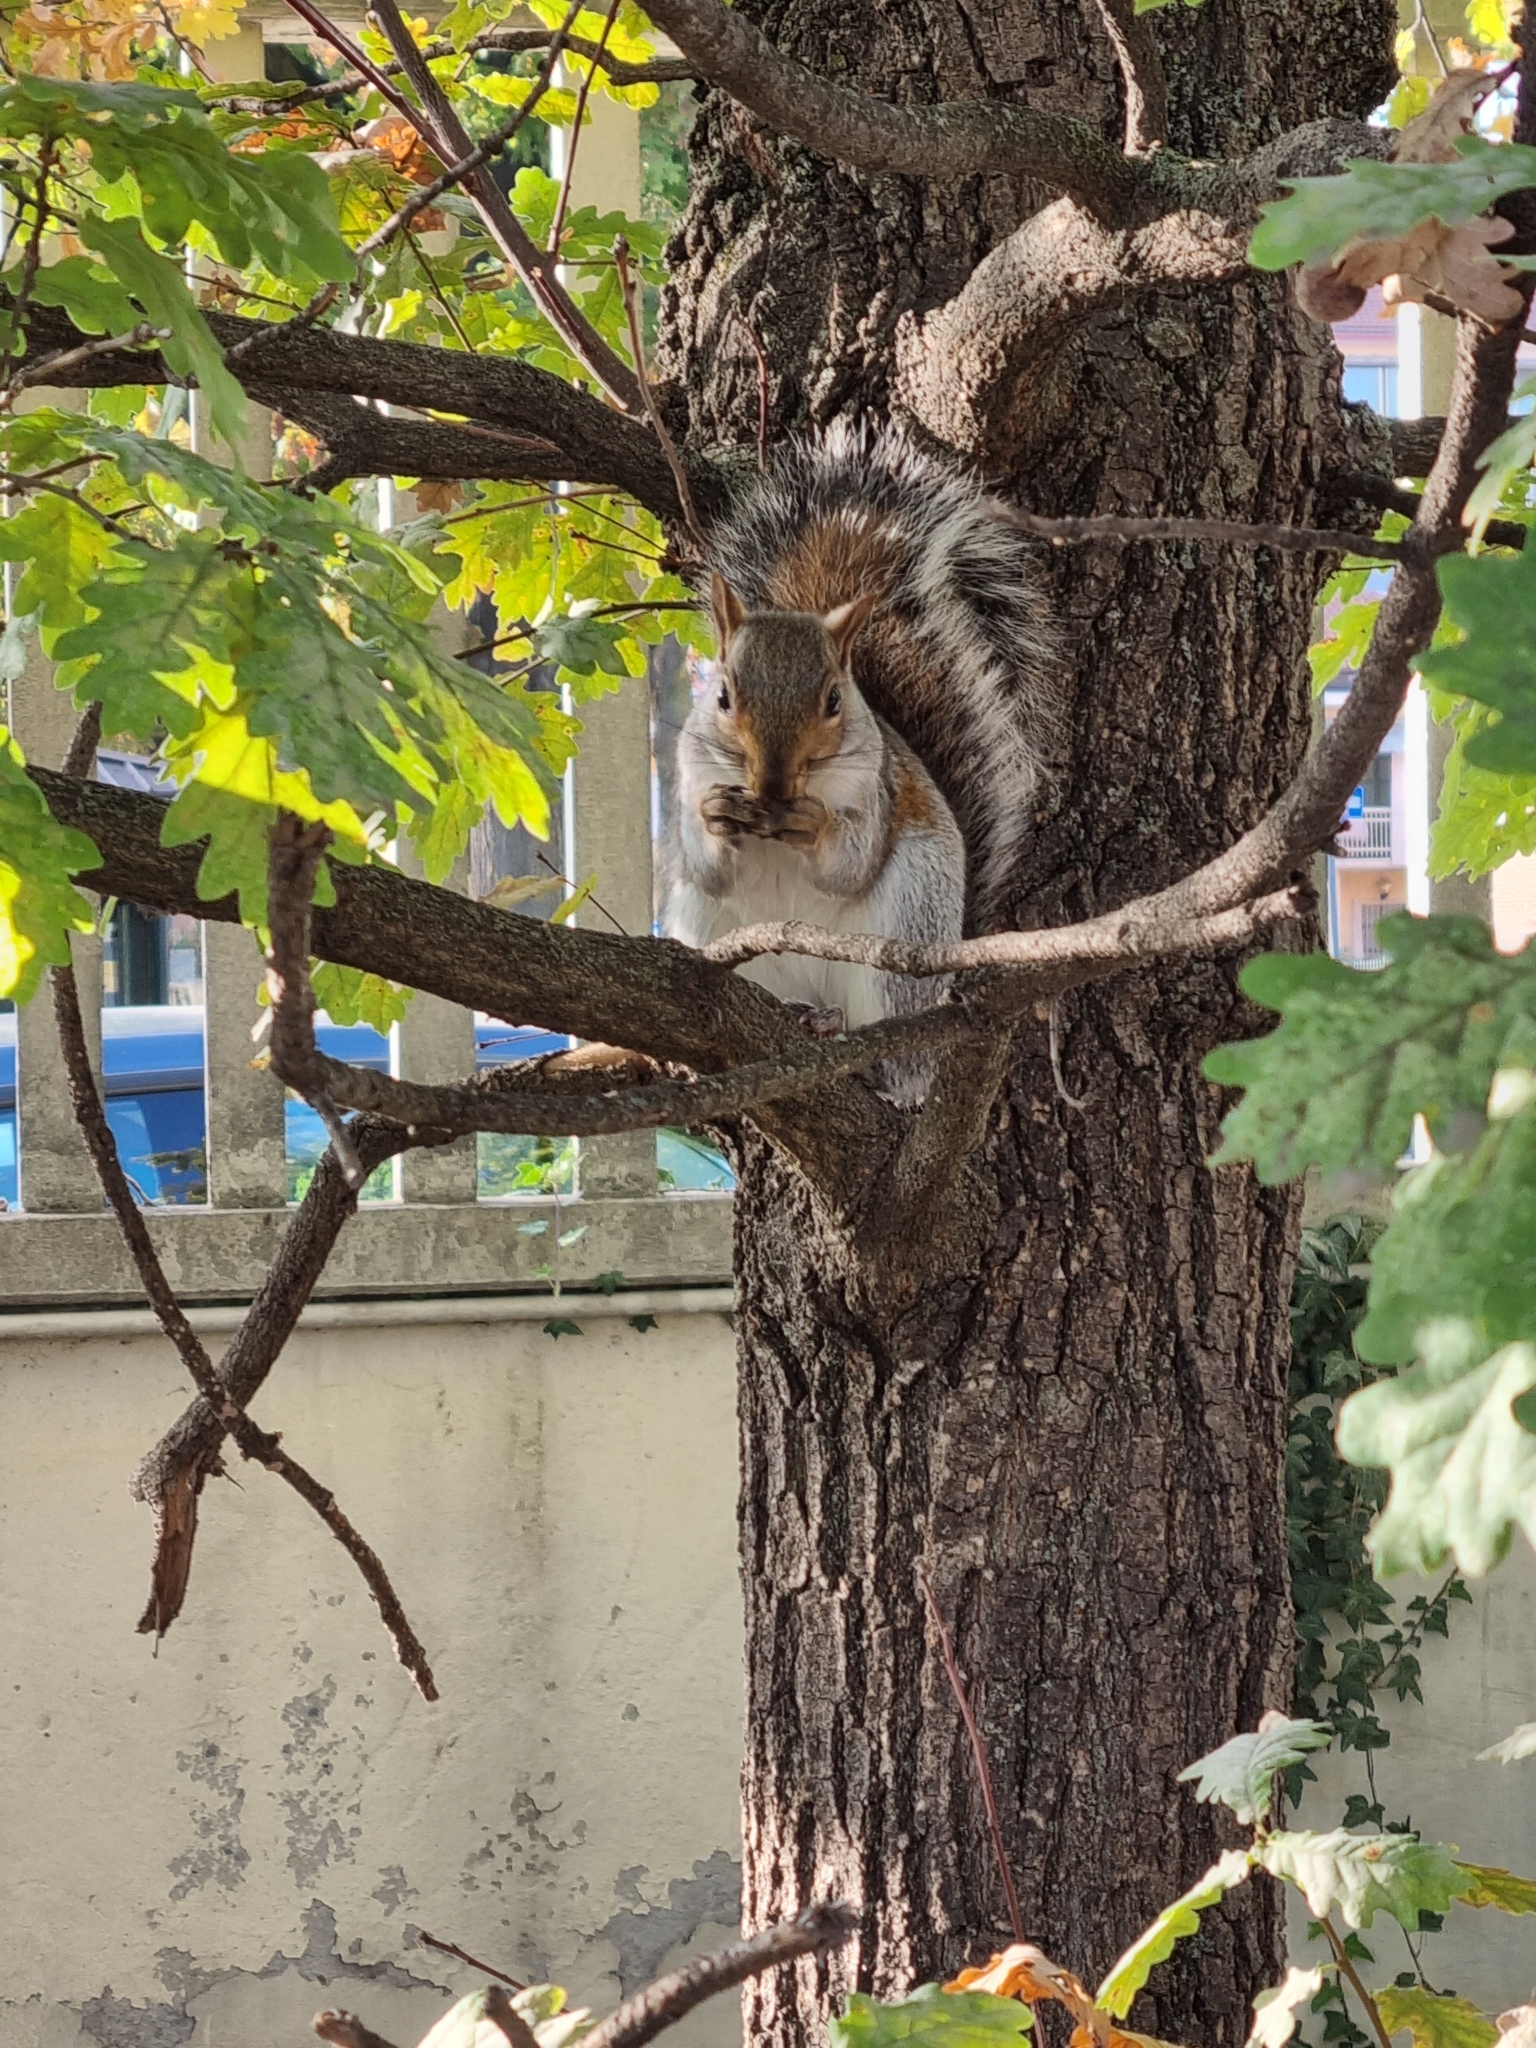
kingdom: Animalia
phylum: Chordata
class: Mammalia
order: Rodentia
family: Sciuridae
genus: Sciurus
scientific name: Sciurus carolinensis
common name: Eastern gray squirrel
